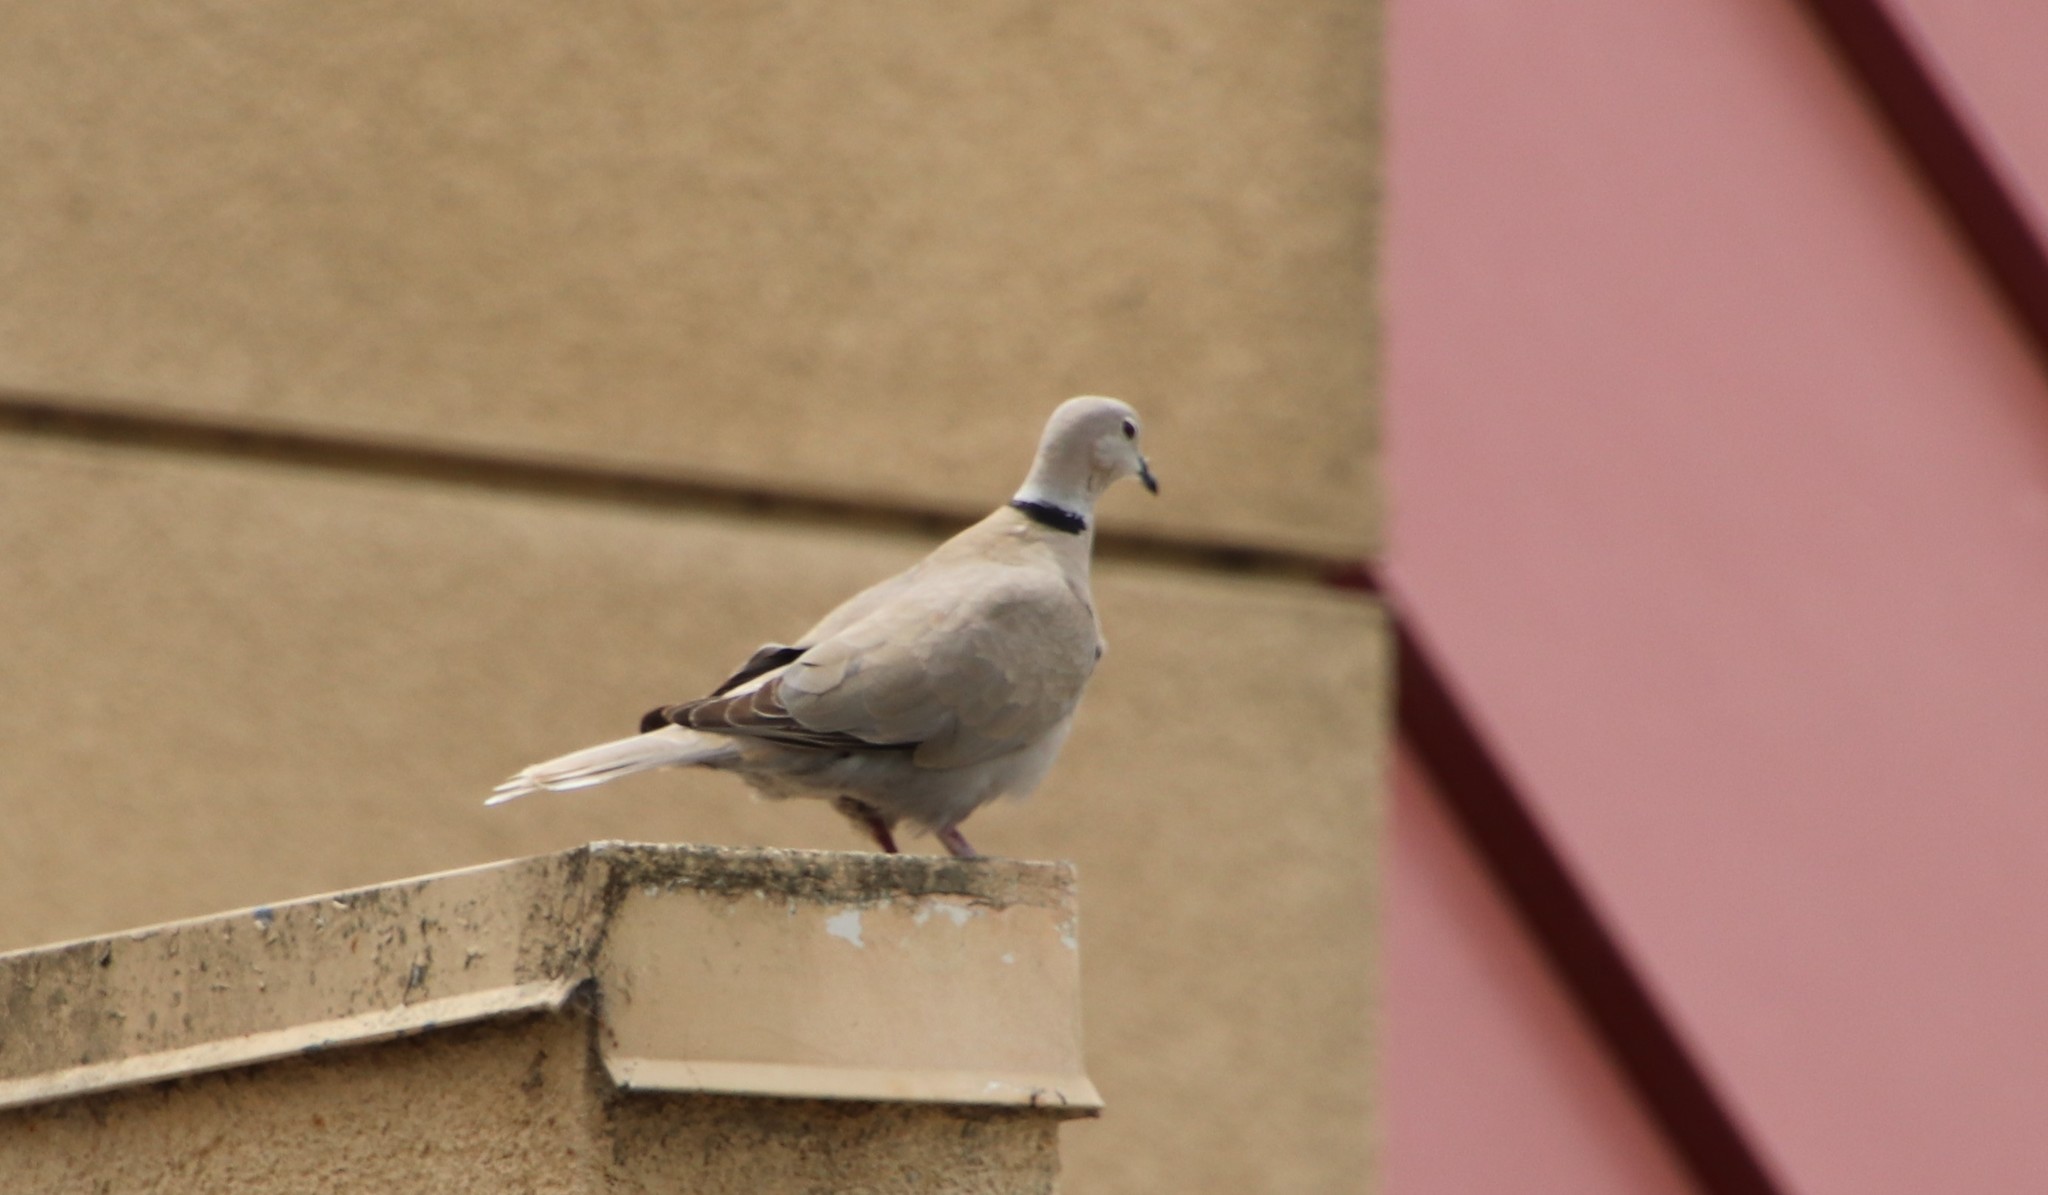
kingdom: Animalia
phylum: Chordata
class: Aves
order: Columbiformes
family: Columbidae
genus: Streptopelia
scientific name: Streptopelia decaocto
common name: Eurasian collared dove
